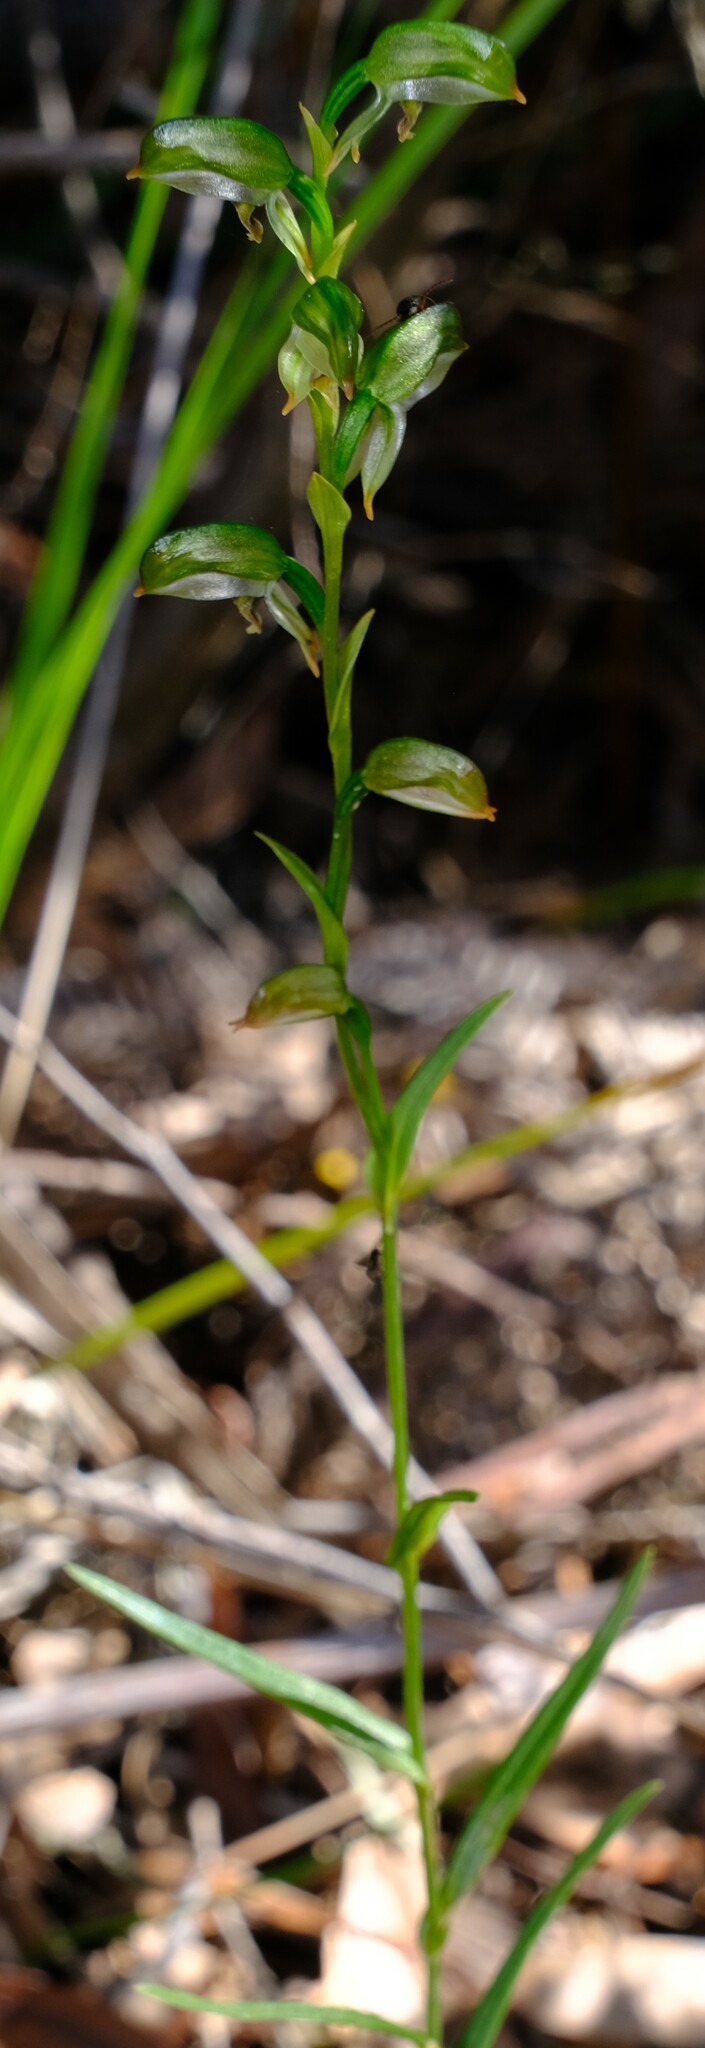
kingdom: Plantae
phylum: Tracheophyta
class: Liliopsida
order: Asparagales
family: Orchidaceae
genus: Pterostylis
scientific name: Pterostylis melagramma
